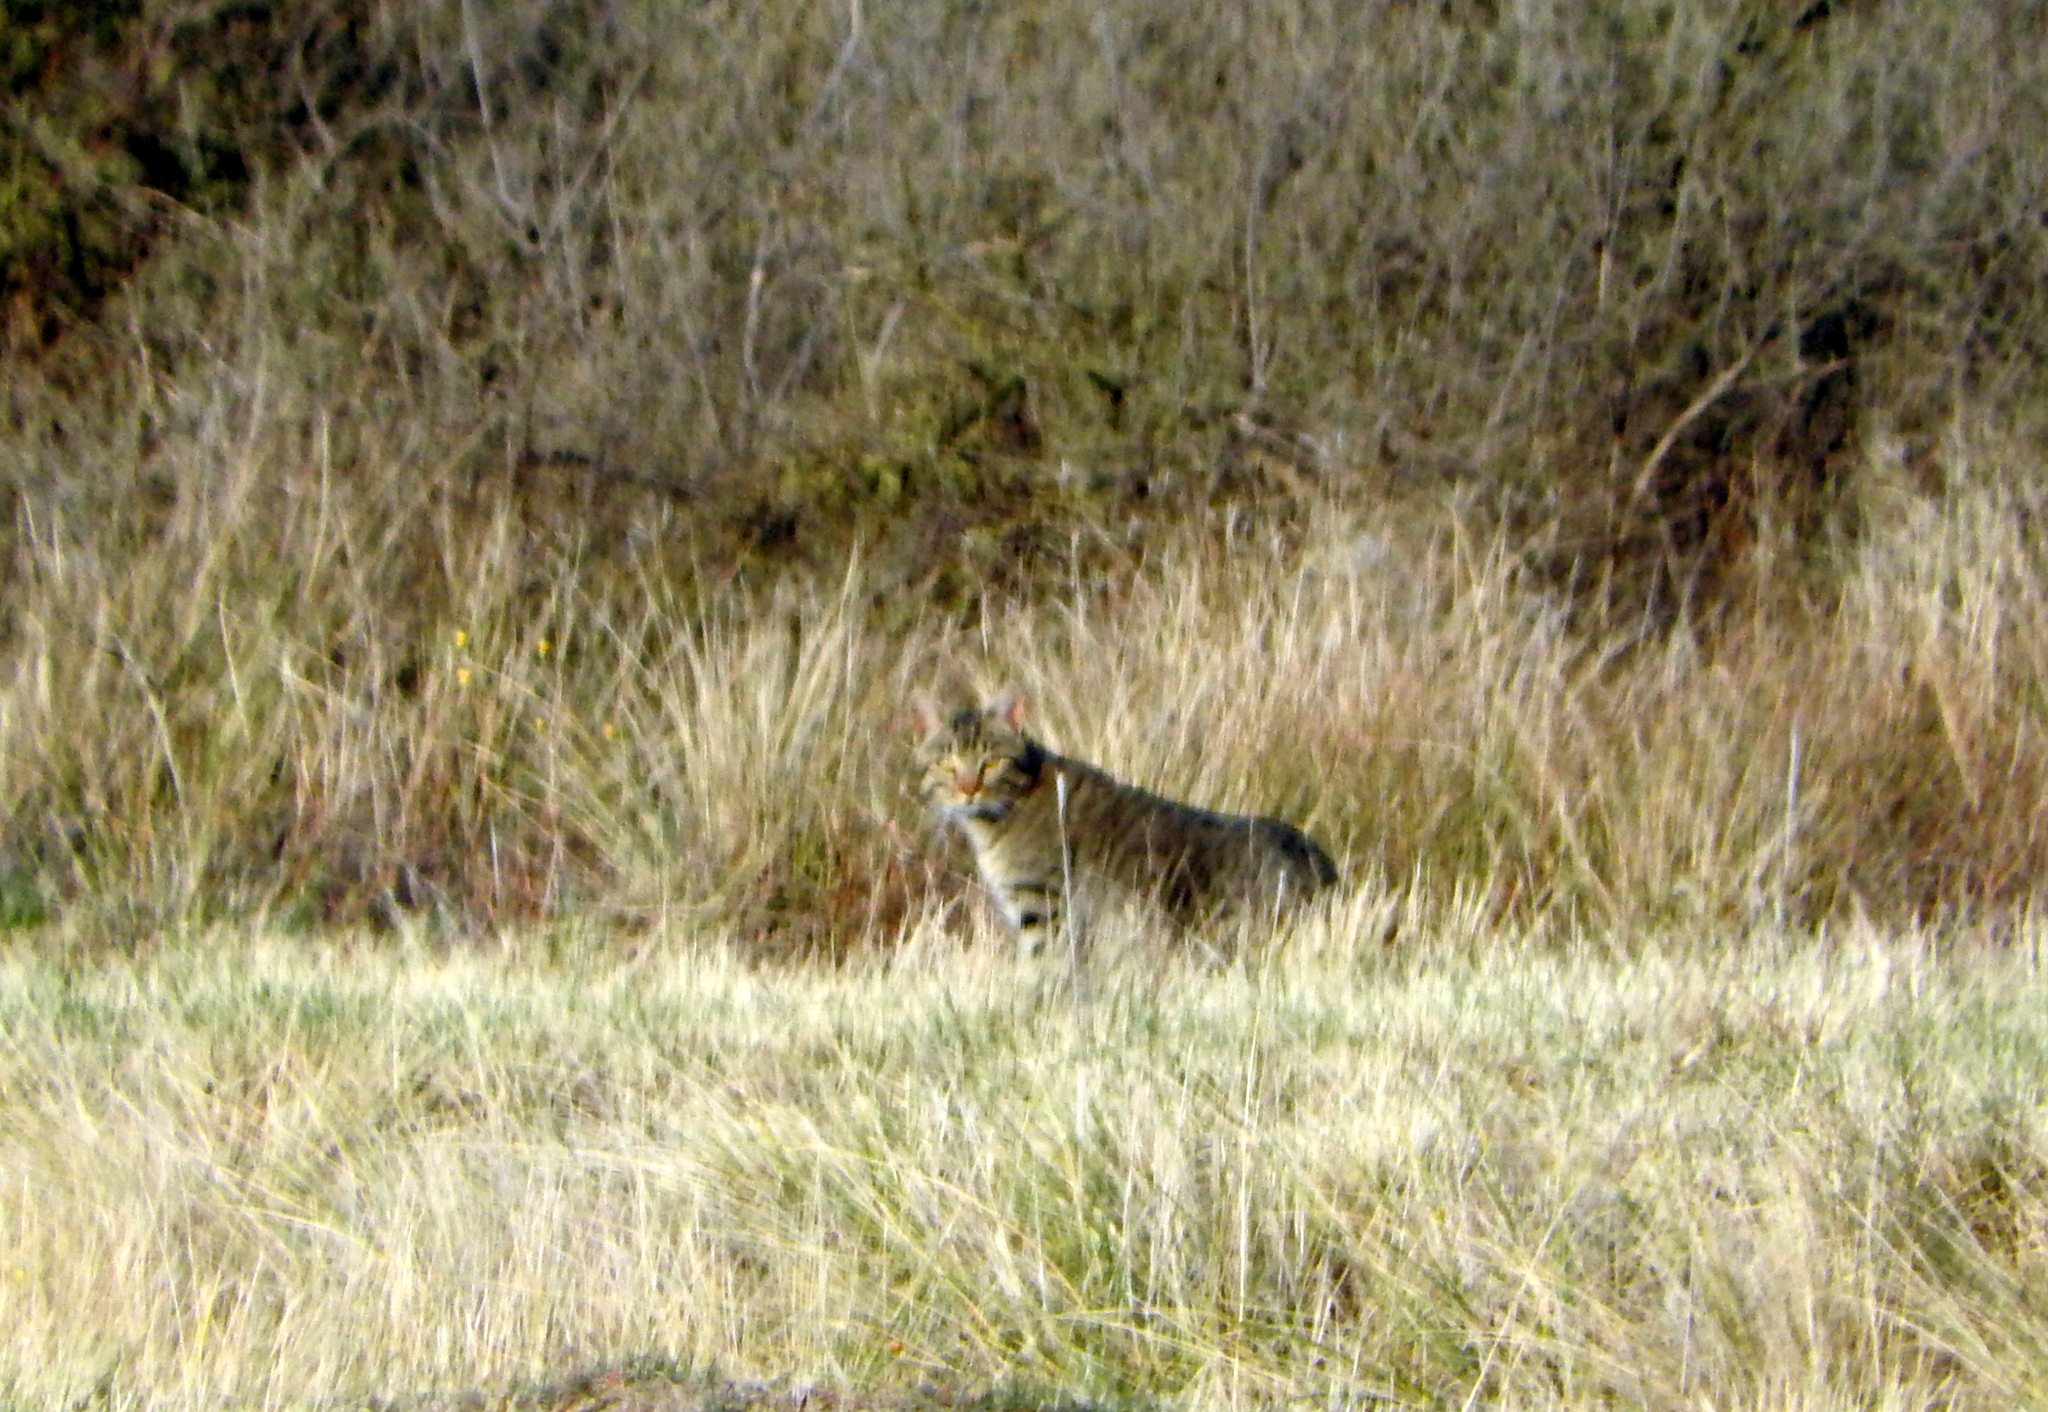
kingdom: Animalia
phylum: Chordata
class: Mammalia
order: Carnivora
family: Felidae
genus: Felis
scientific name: Felis catus
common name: Domestic cat
